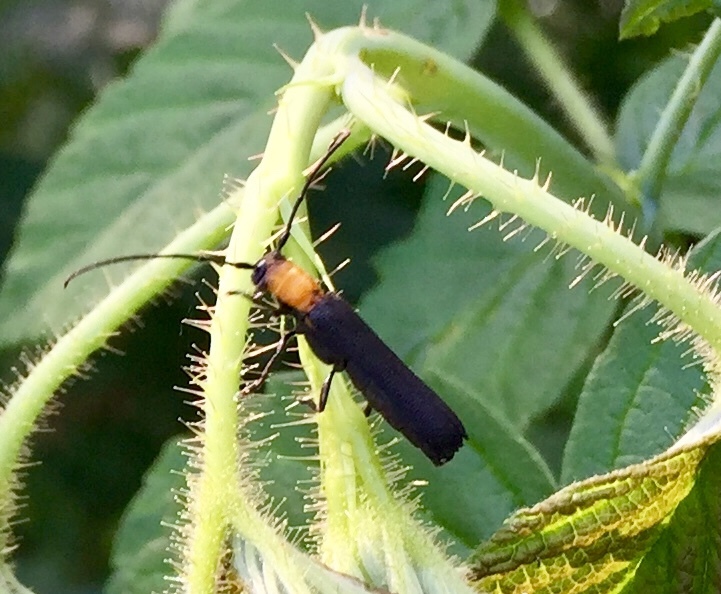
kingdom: Animalia
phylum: Arthropoda
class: Insecta
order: Coleoptera
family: Cerambycidae
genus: Oberea
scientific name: Oberea affinis
